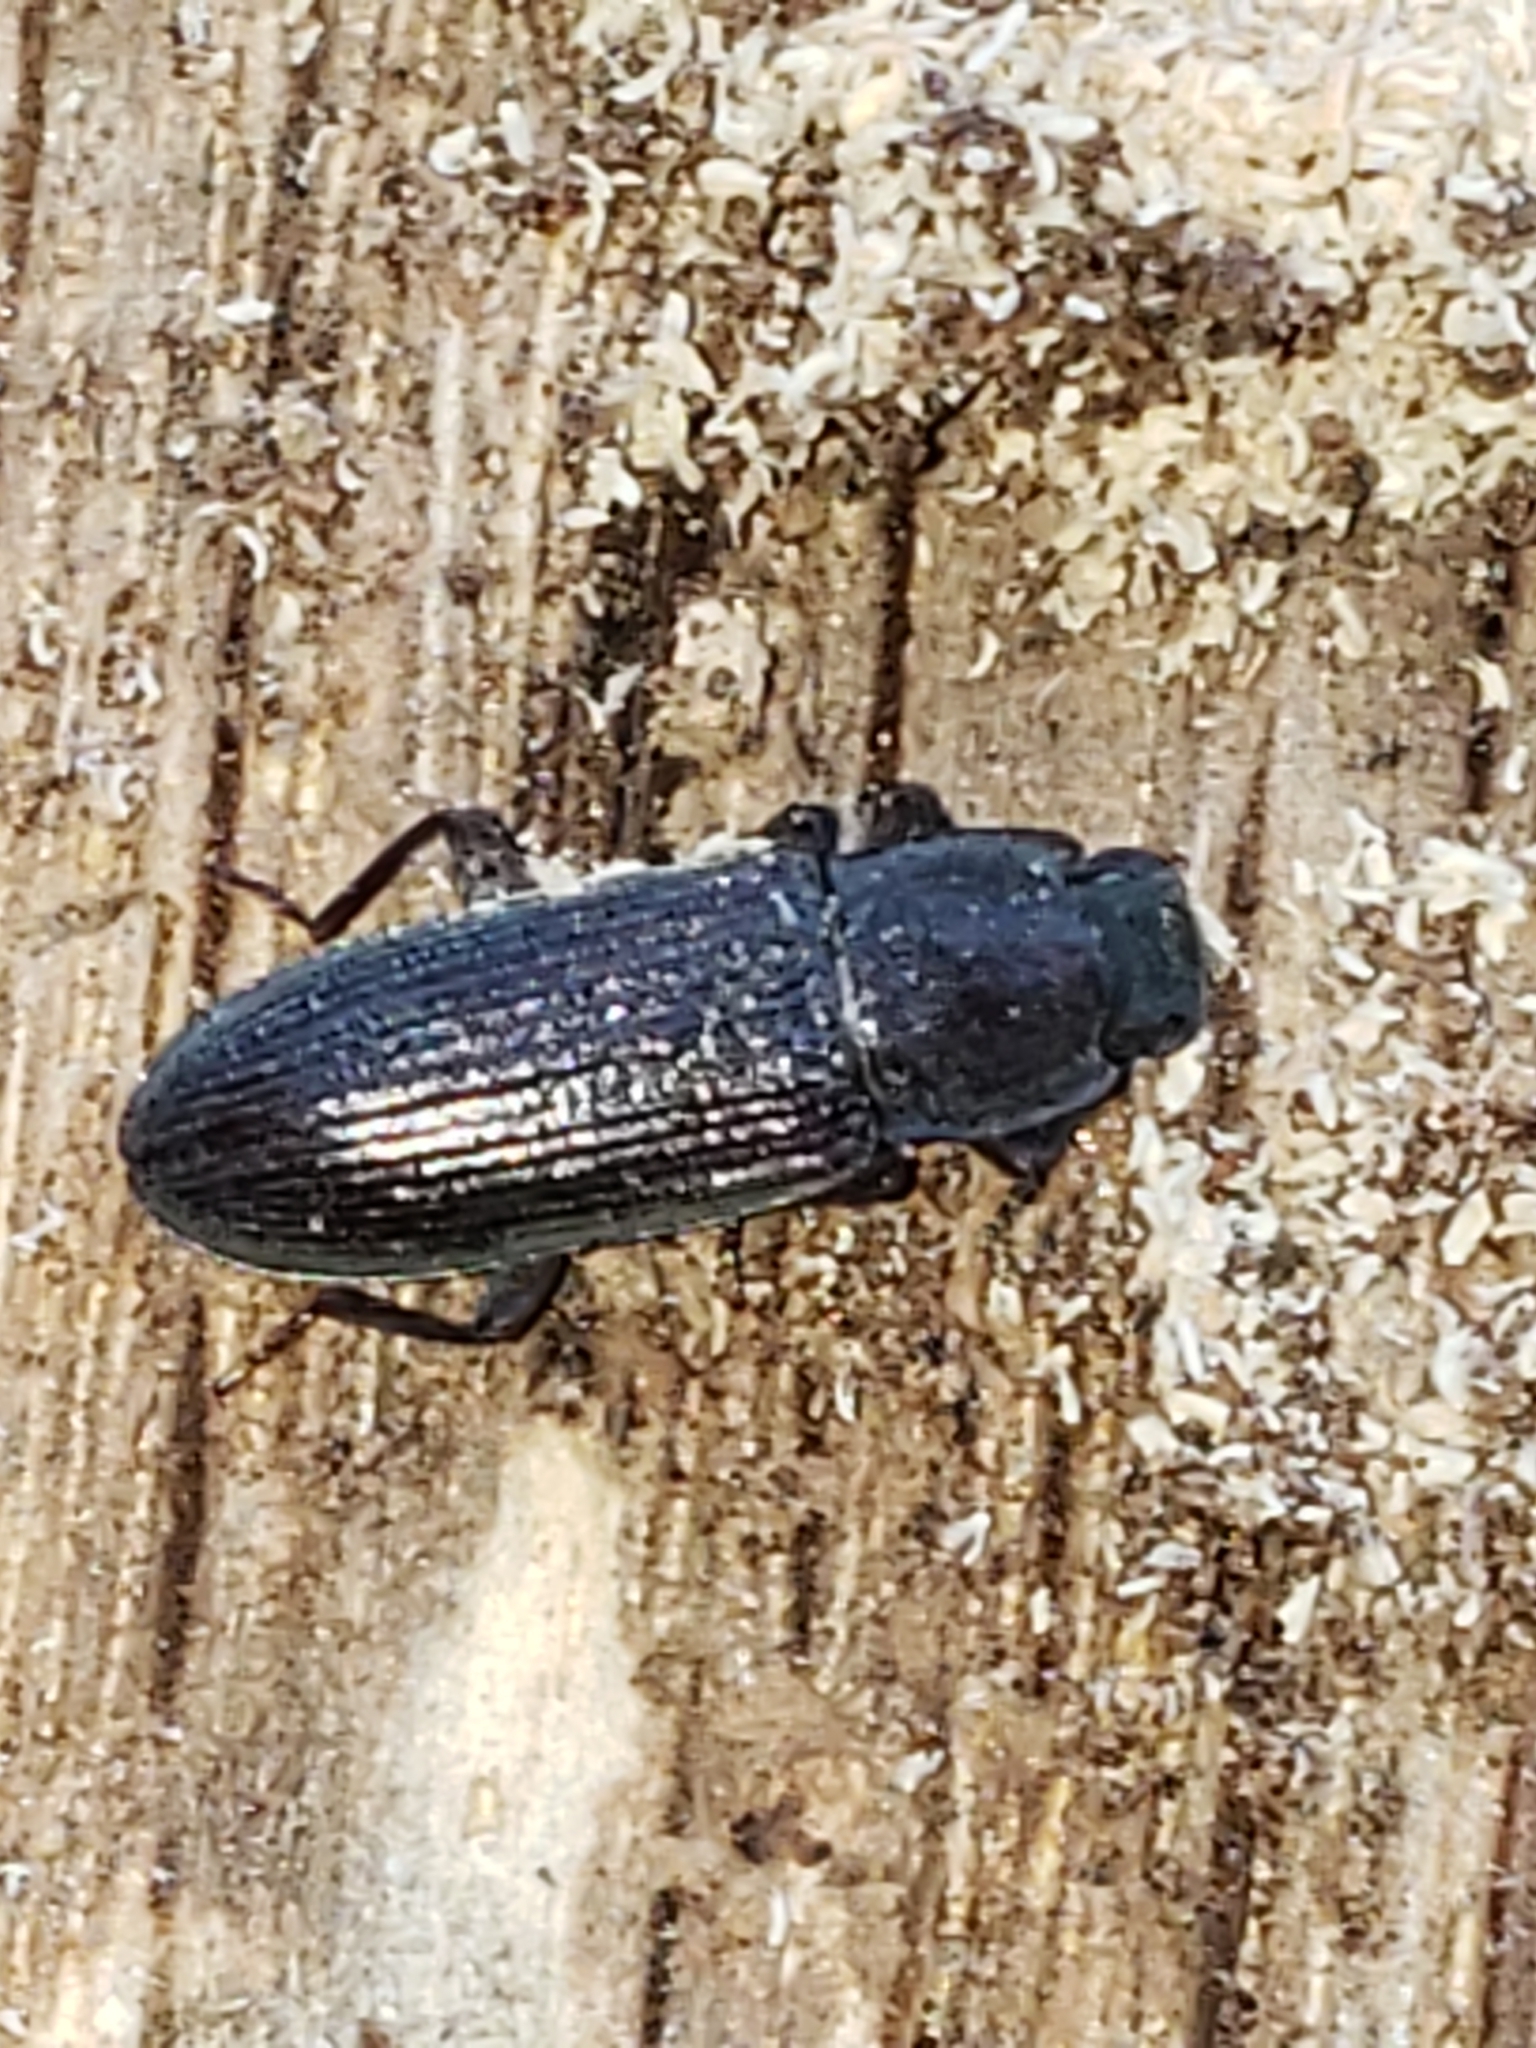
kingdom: Animalia
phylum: Arthropoda
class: Insecta
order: Coleoptera
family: Tenebrionidae
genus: Idiobates
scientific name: Idiobates castaneus
